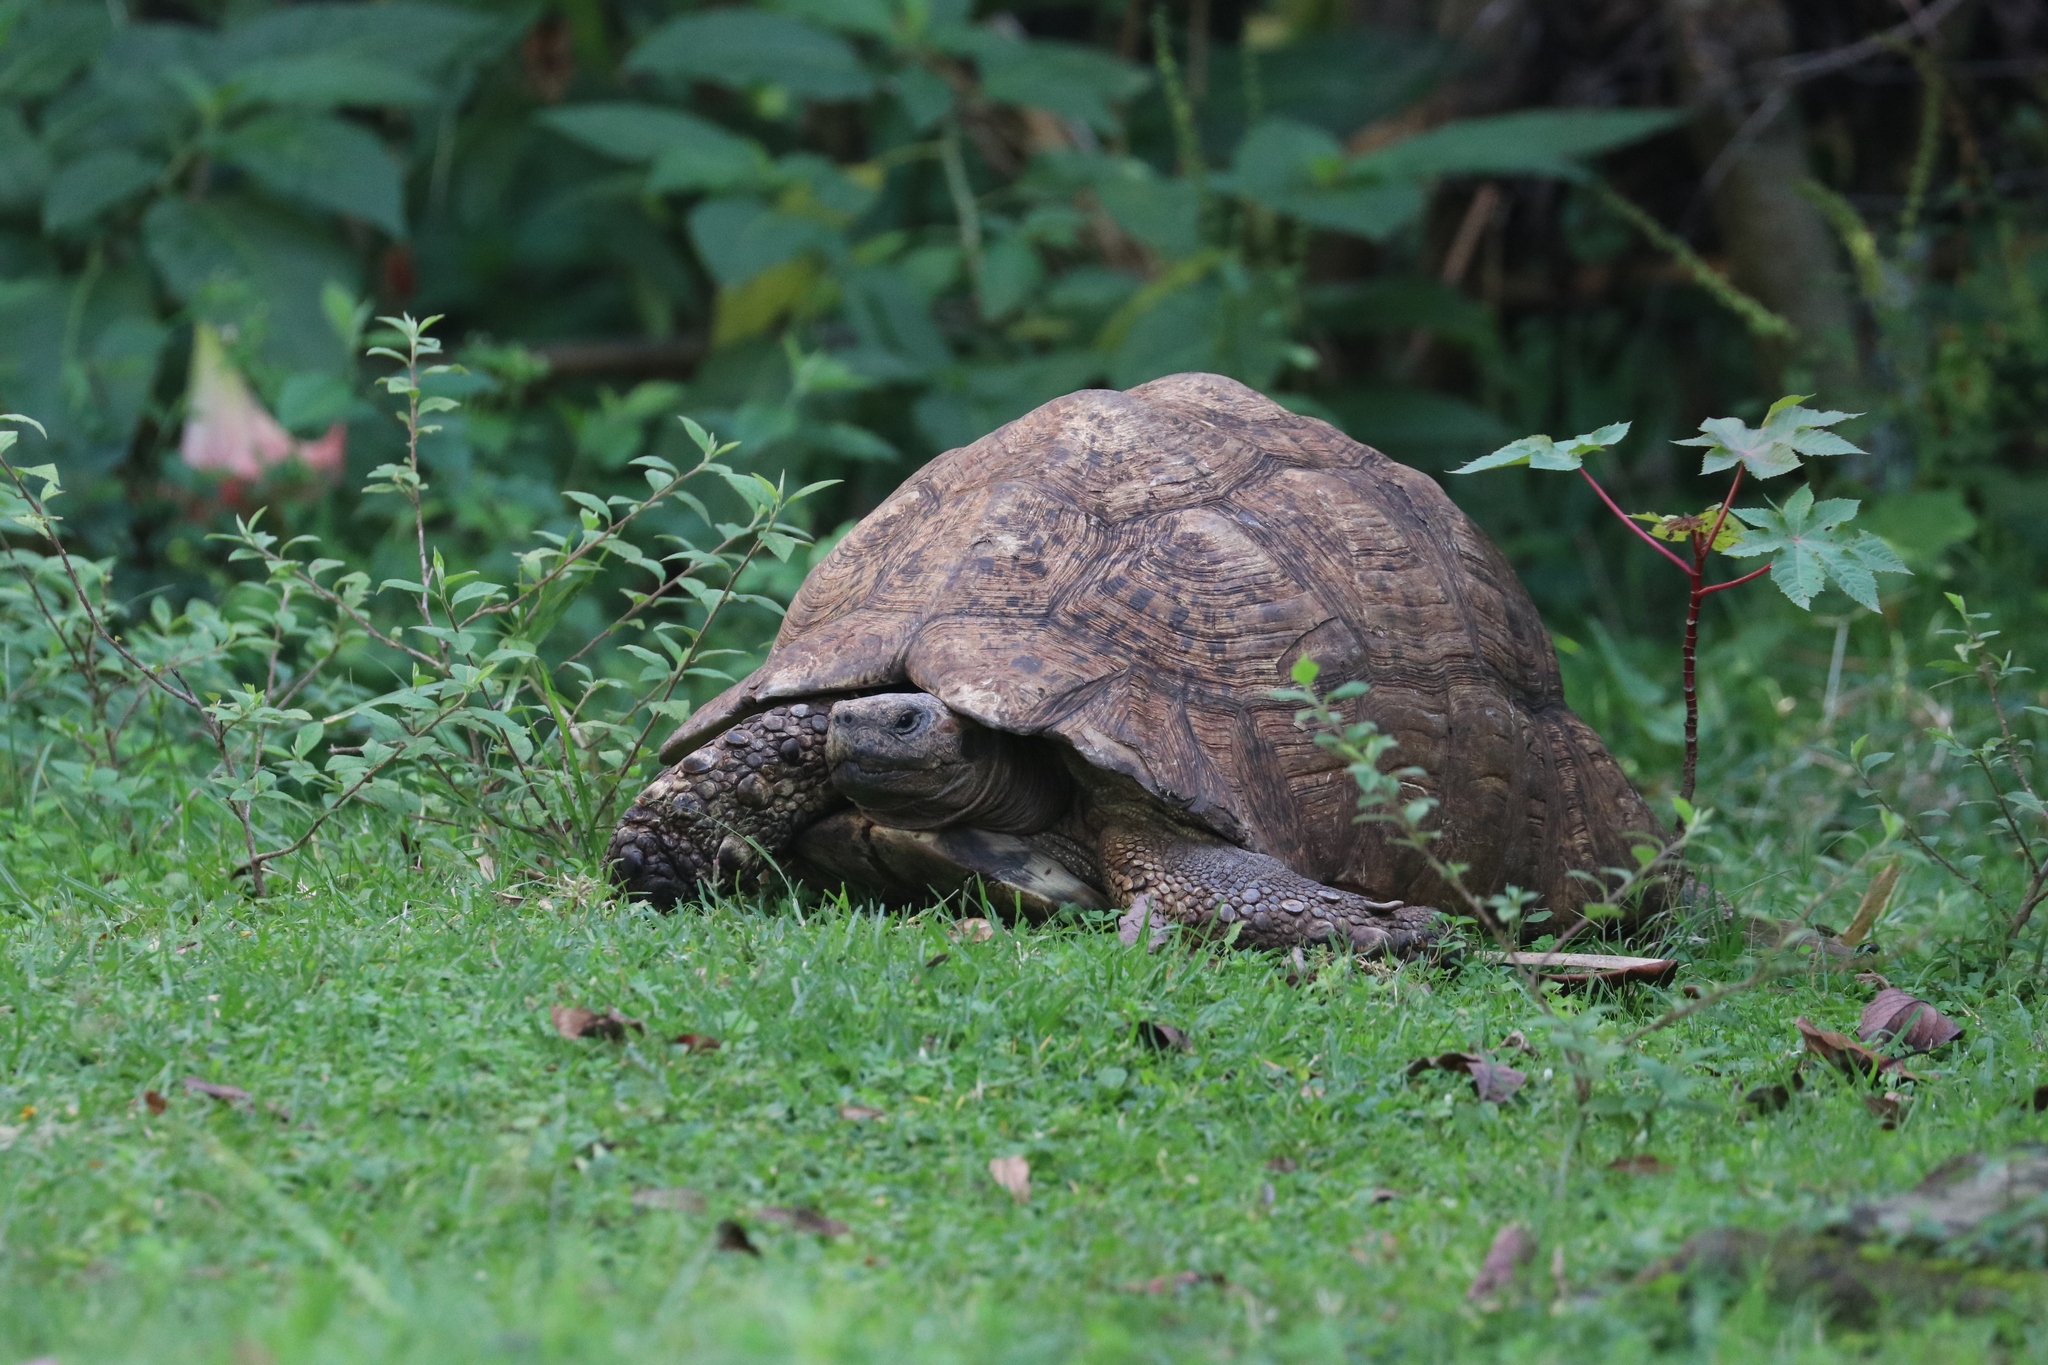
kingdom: Animalia
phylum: Chordata
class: Testudines
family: Testudinidae
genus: Stigmochelys
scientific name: Stigmochelys pardalis
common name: Leopard tortoise
